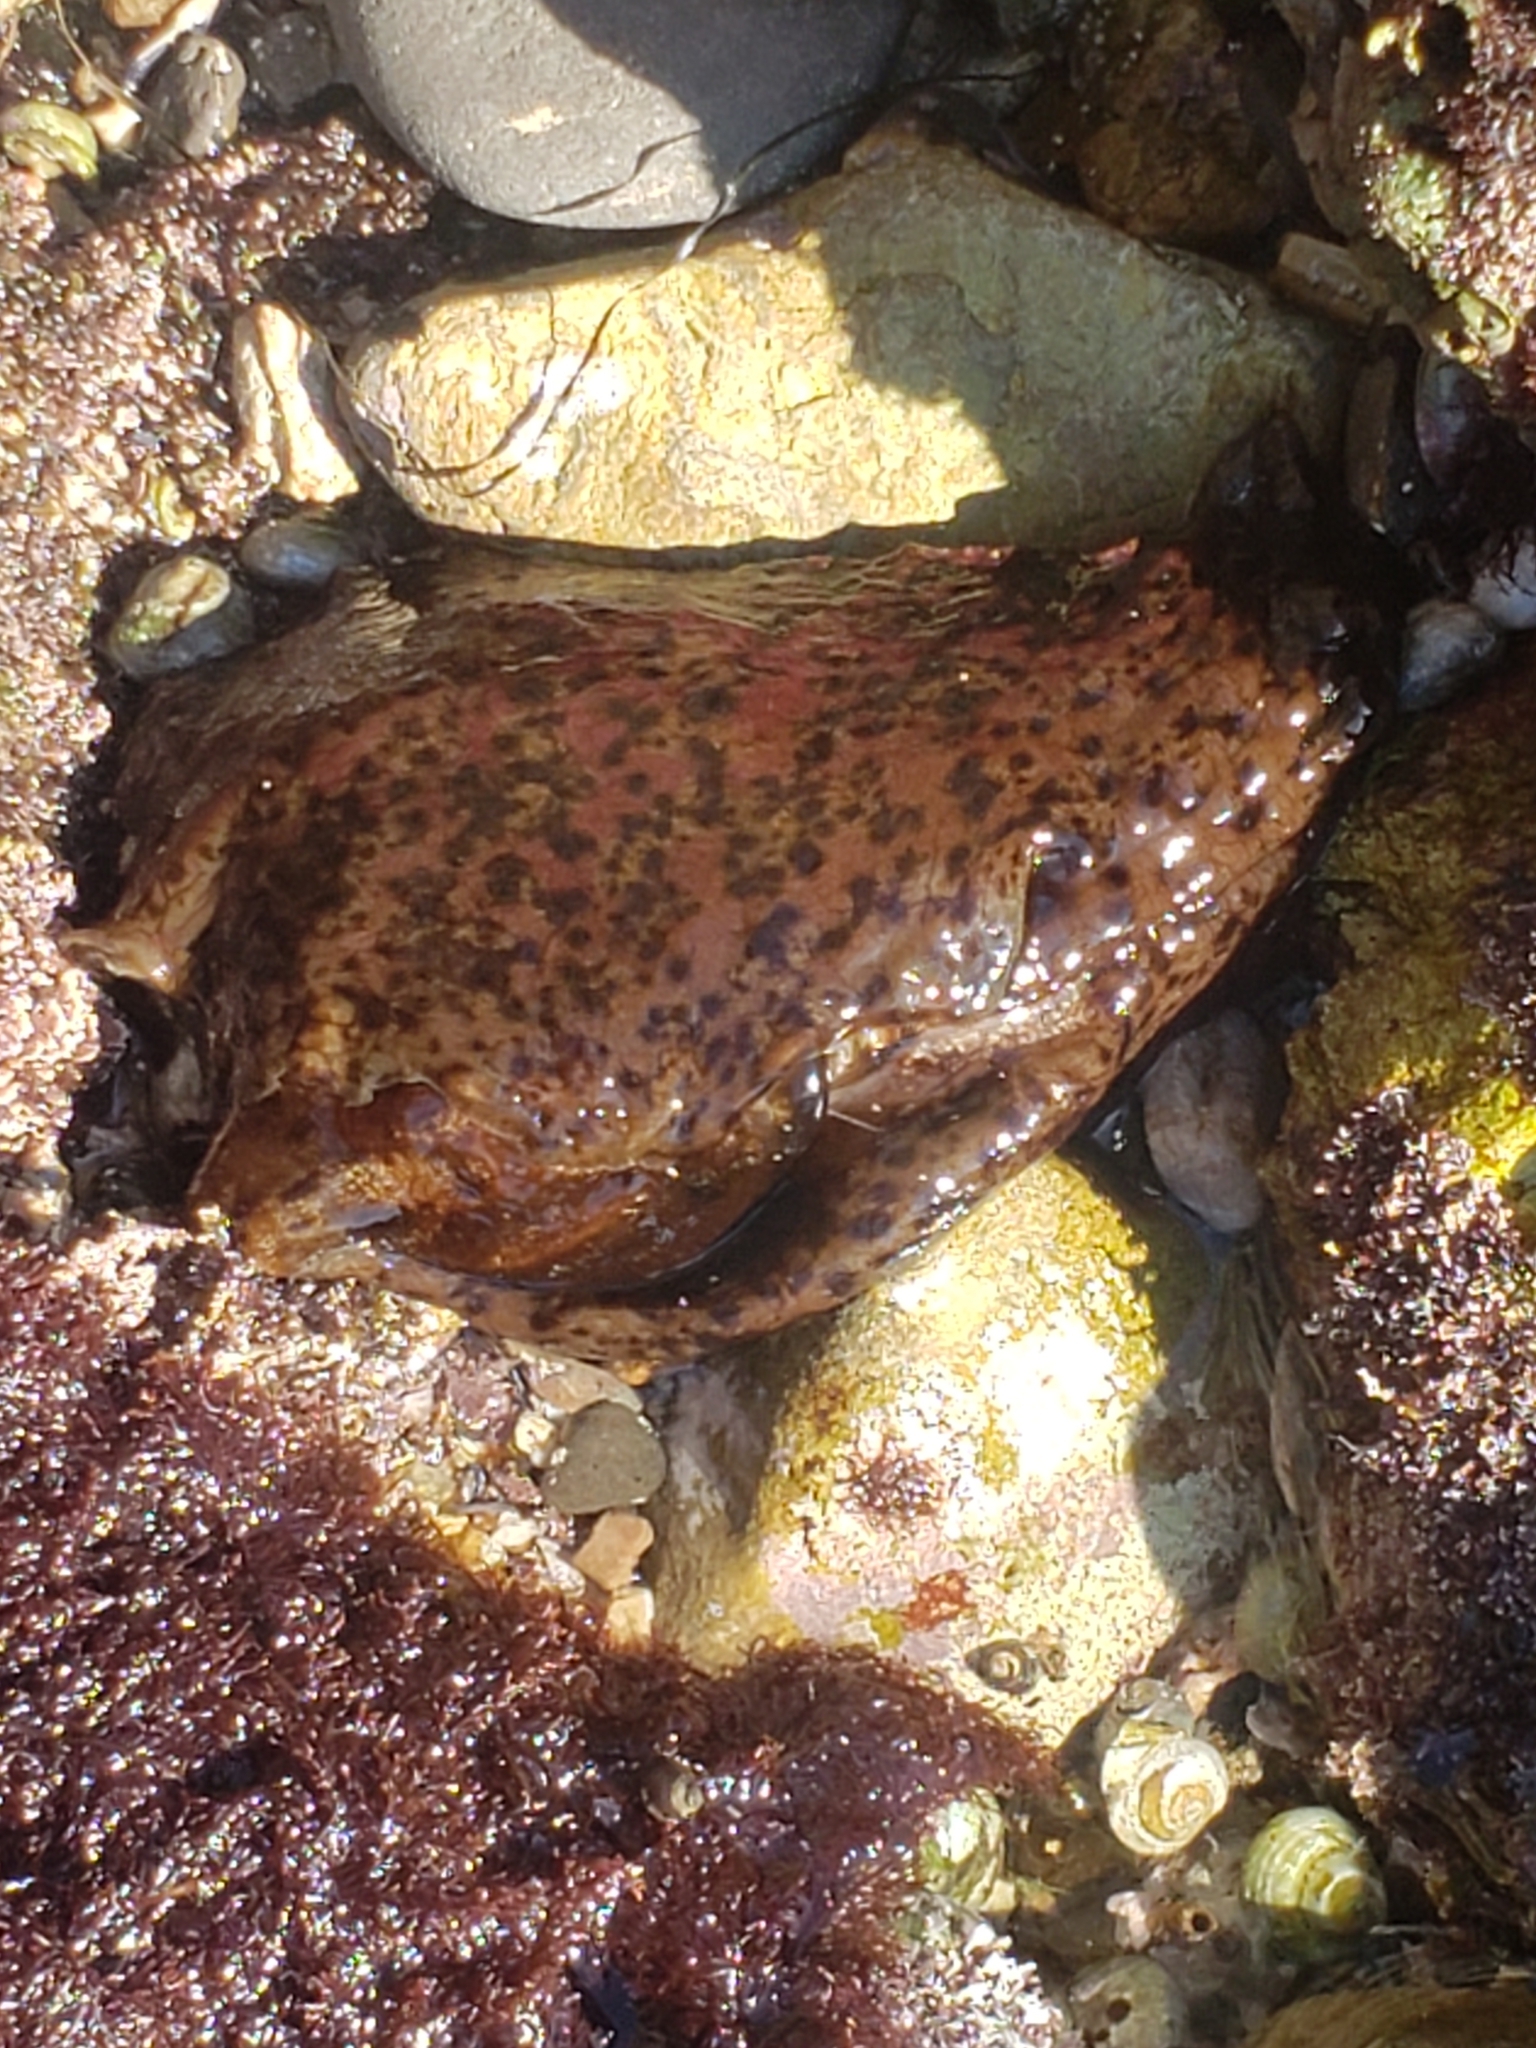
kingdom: Animalia
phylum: Mollusca
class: Gastropoda
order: Aplysiida
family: Aplysiidae
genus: Aplysia
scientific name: Aplysia californica
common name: California seahare
